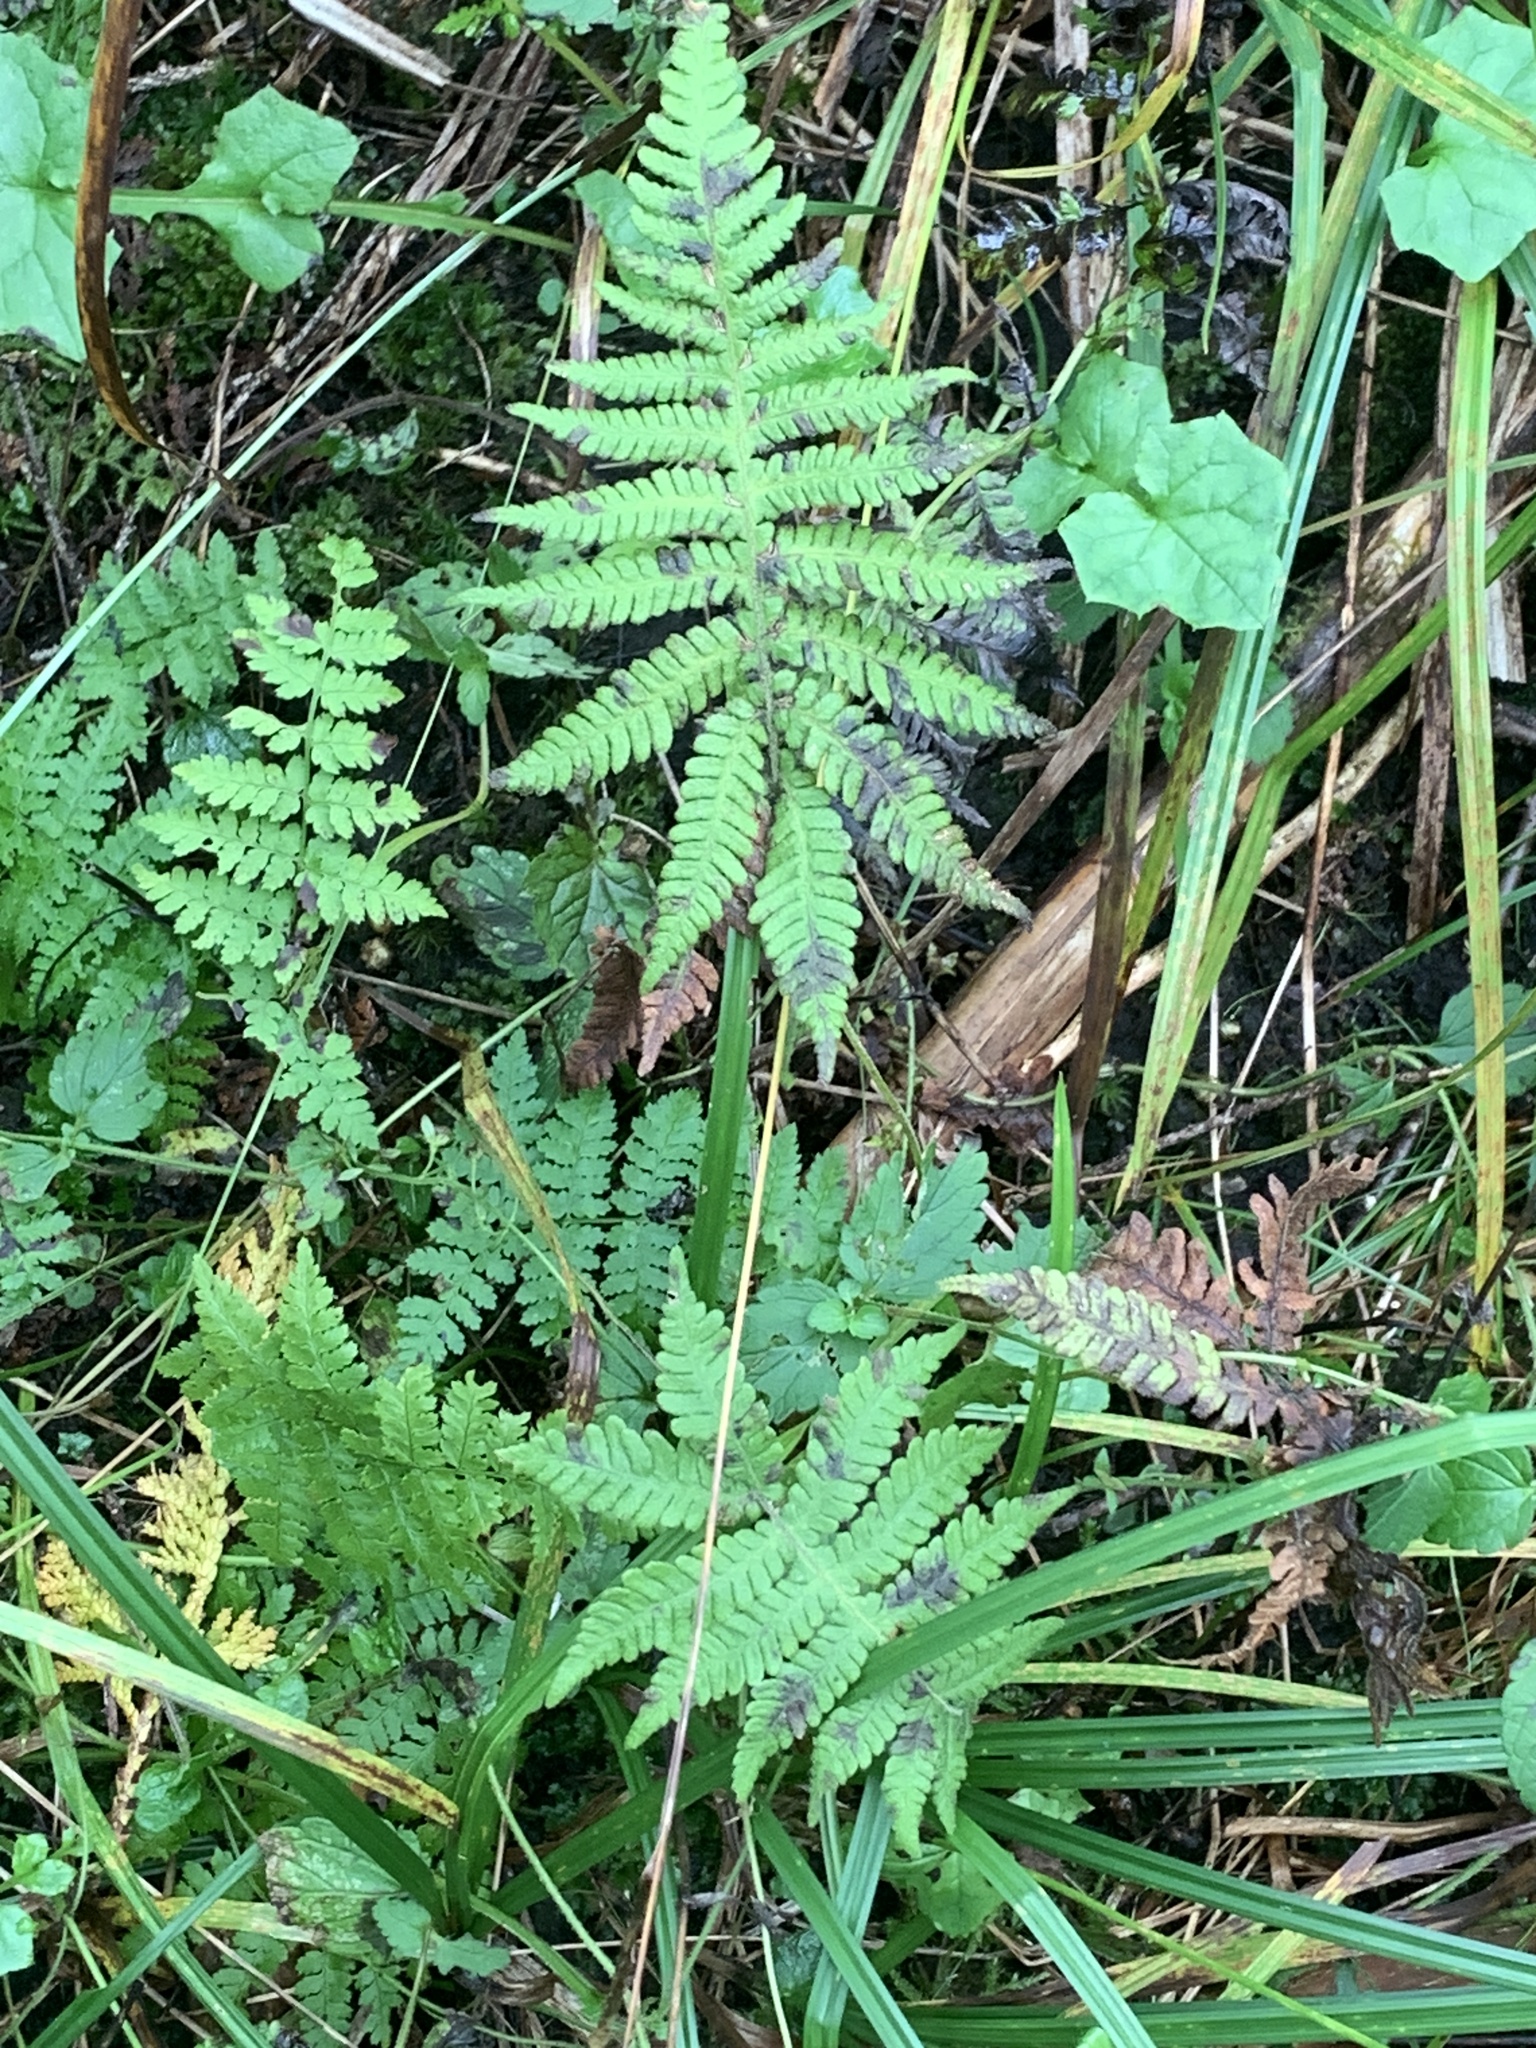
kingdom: Plantae
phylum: Tracheophyta
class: Polypodiopsida
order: Polypodiales
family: Thelypteridaceae
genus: Phegopteris
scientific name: Phegopteris connectilis
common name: Beech fern
